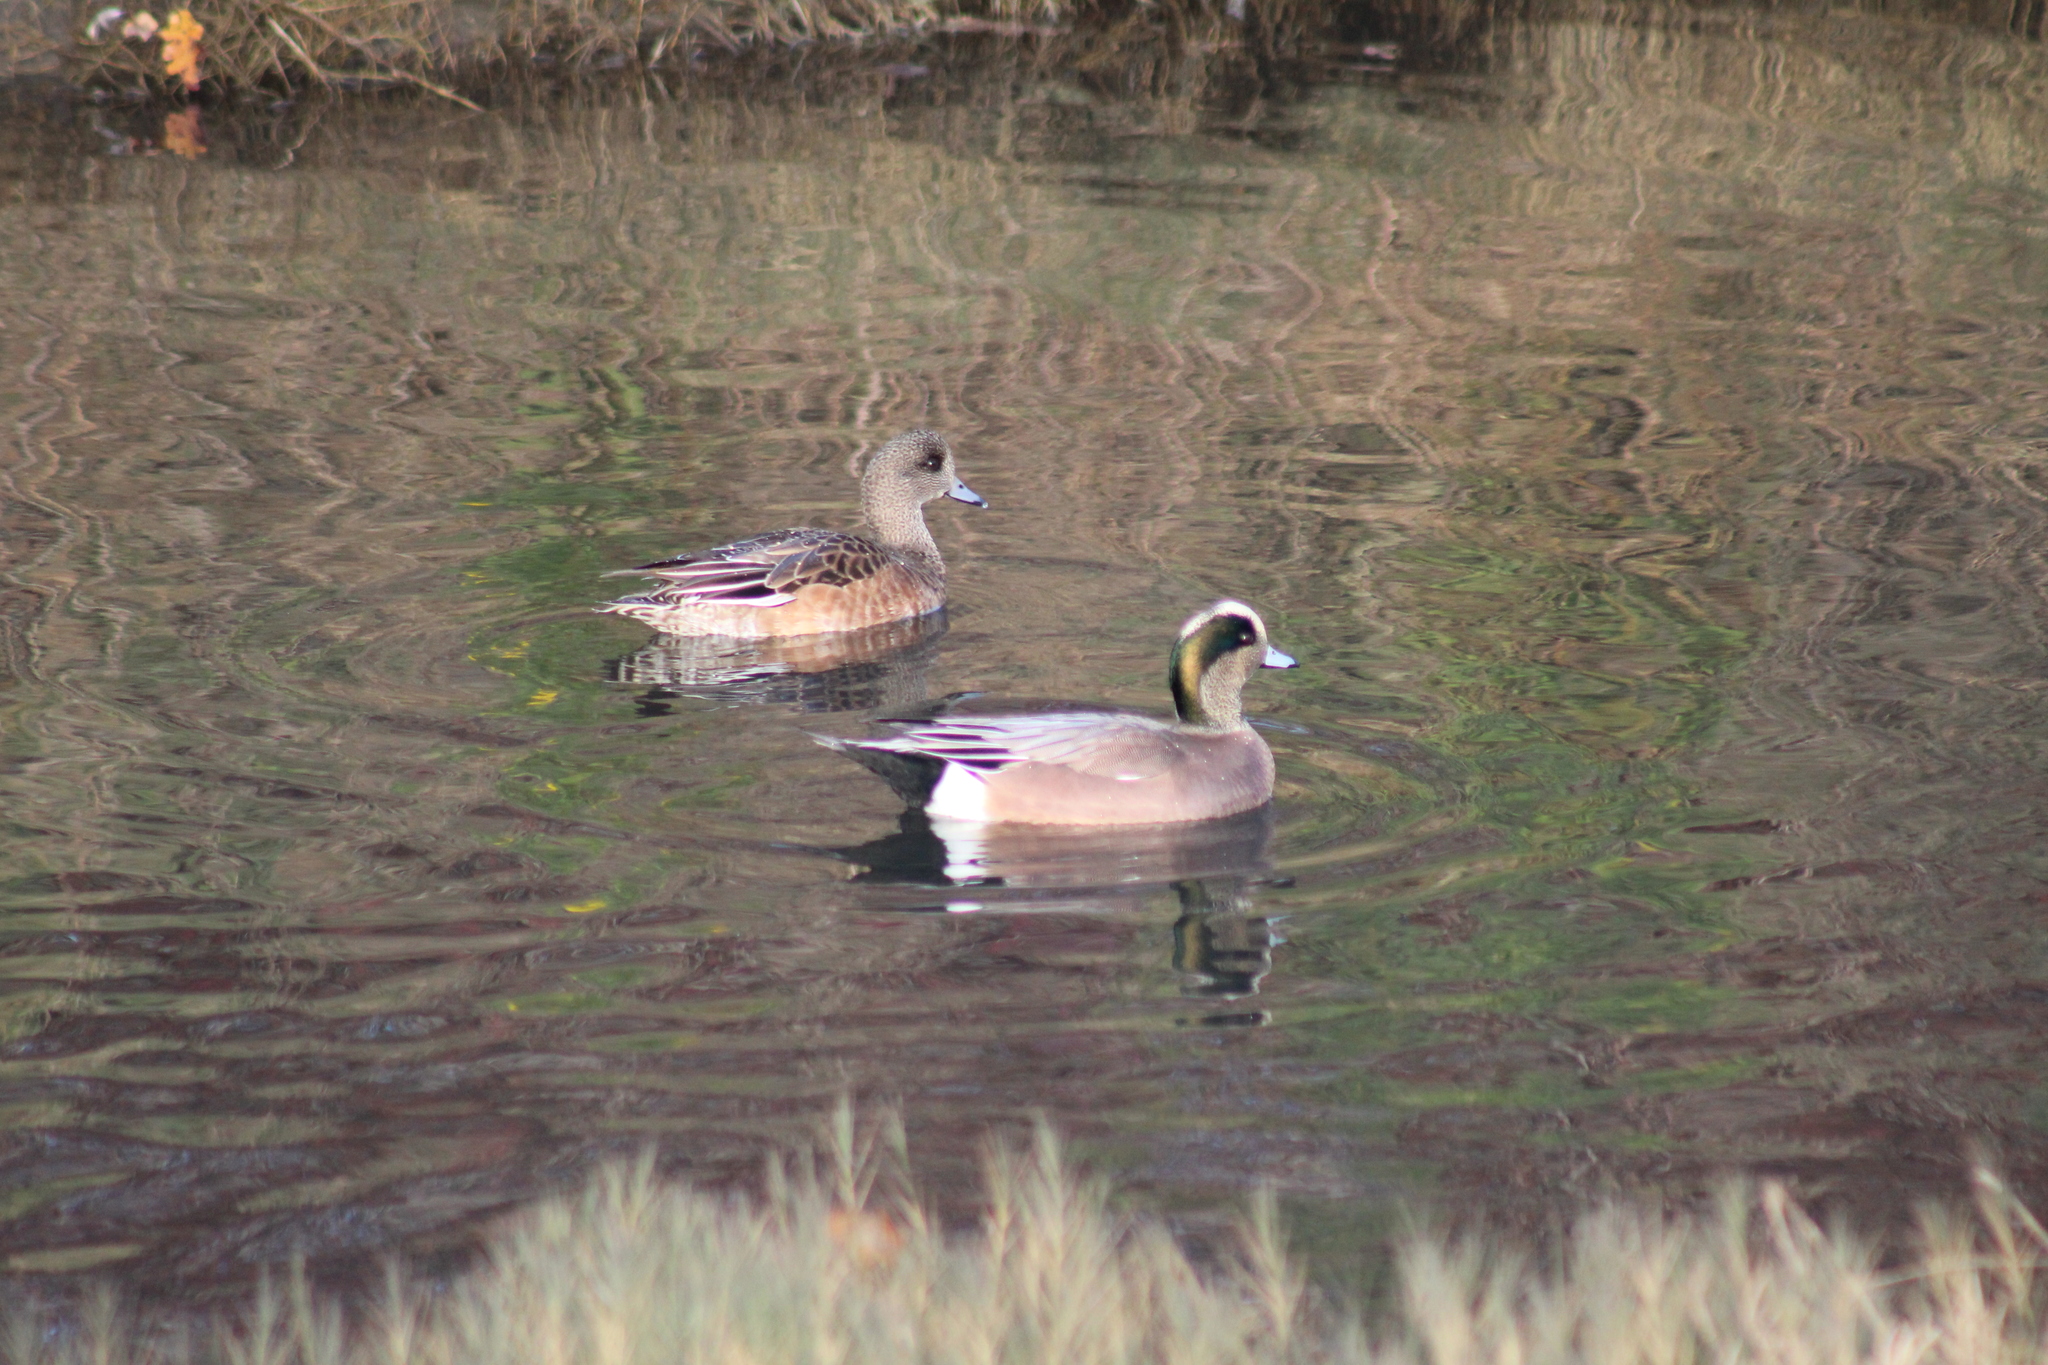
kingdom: Animalia
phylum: Chordata
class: Aves
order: Anseriformes
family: Anatidae
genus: Mareca
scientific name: Mareca americana
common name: American wigeon
